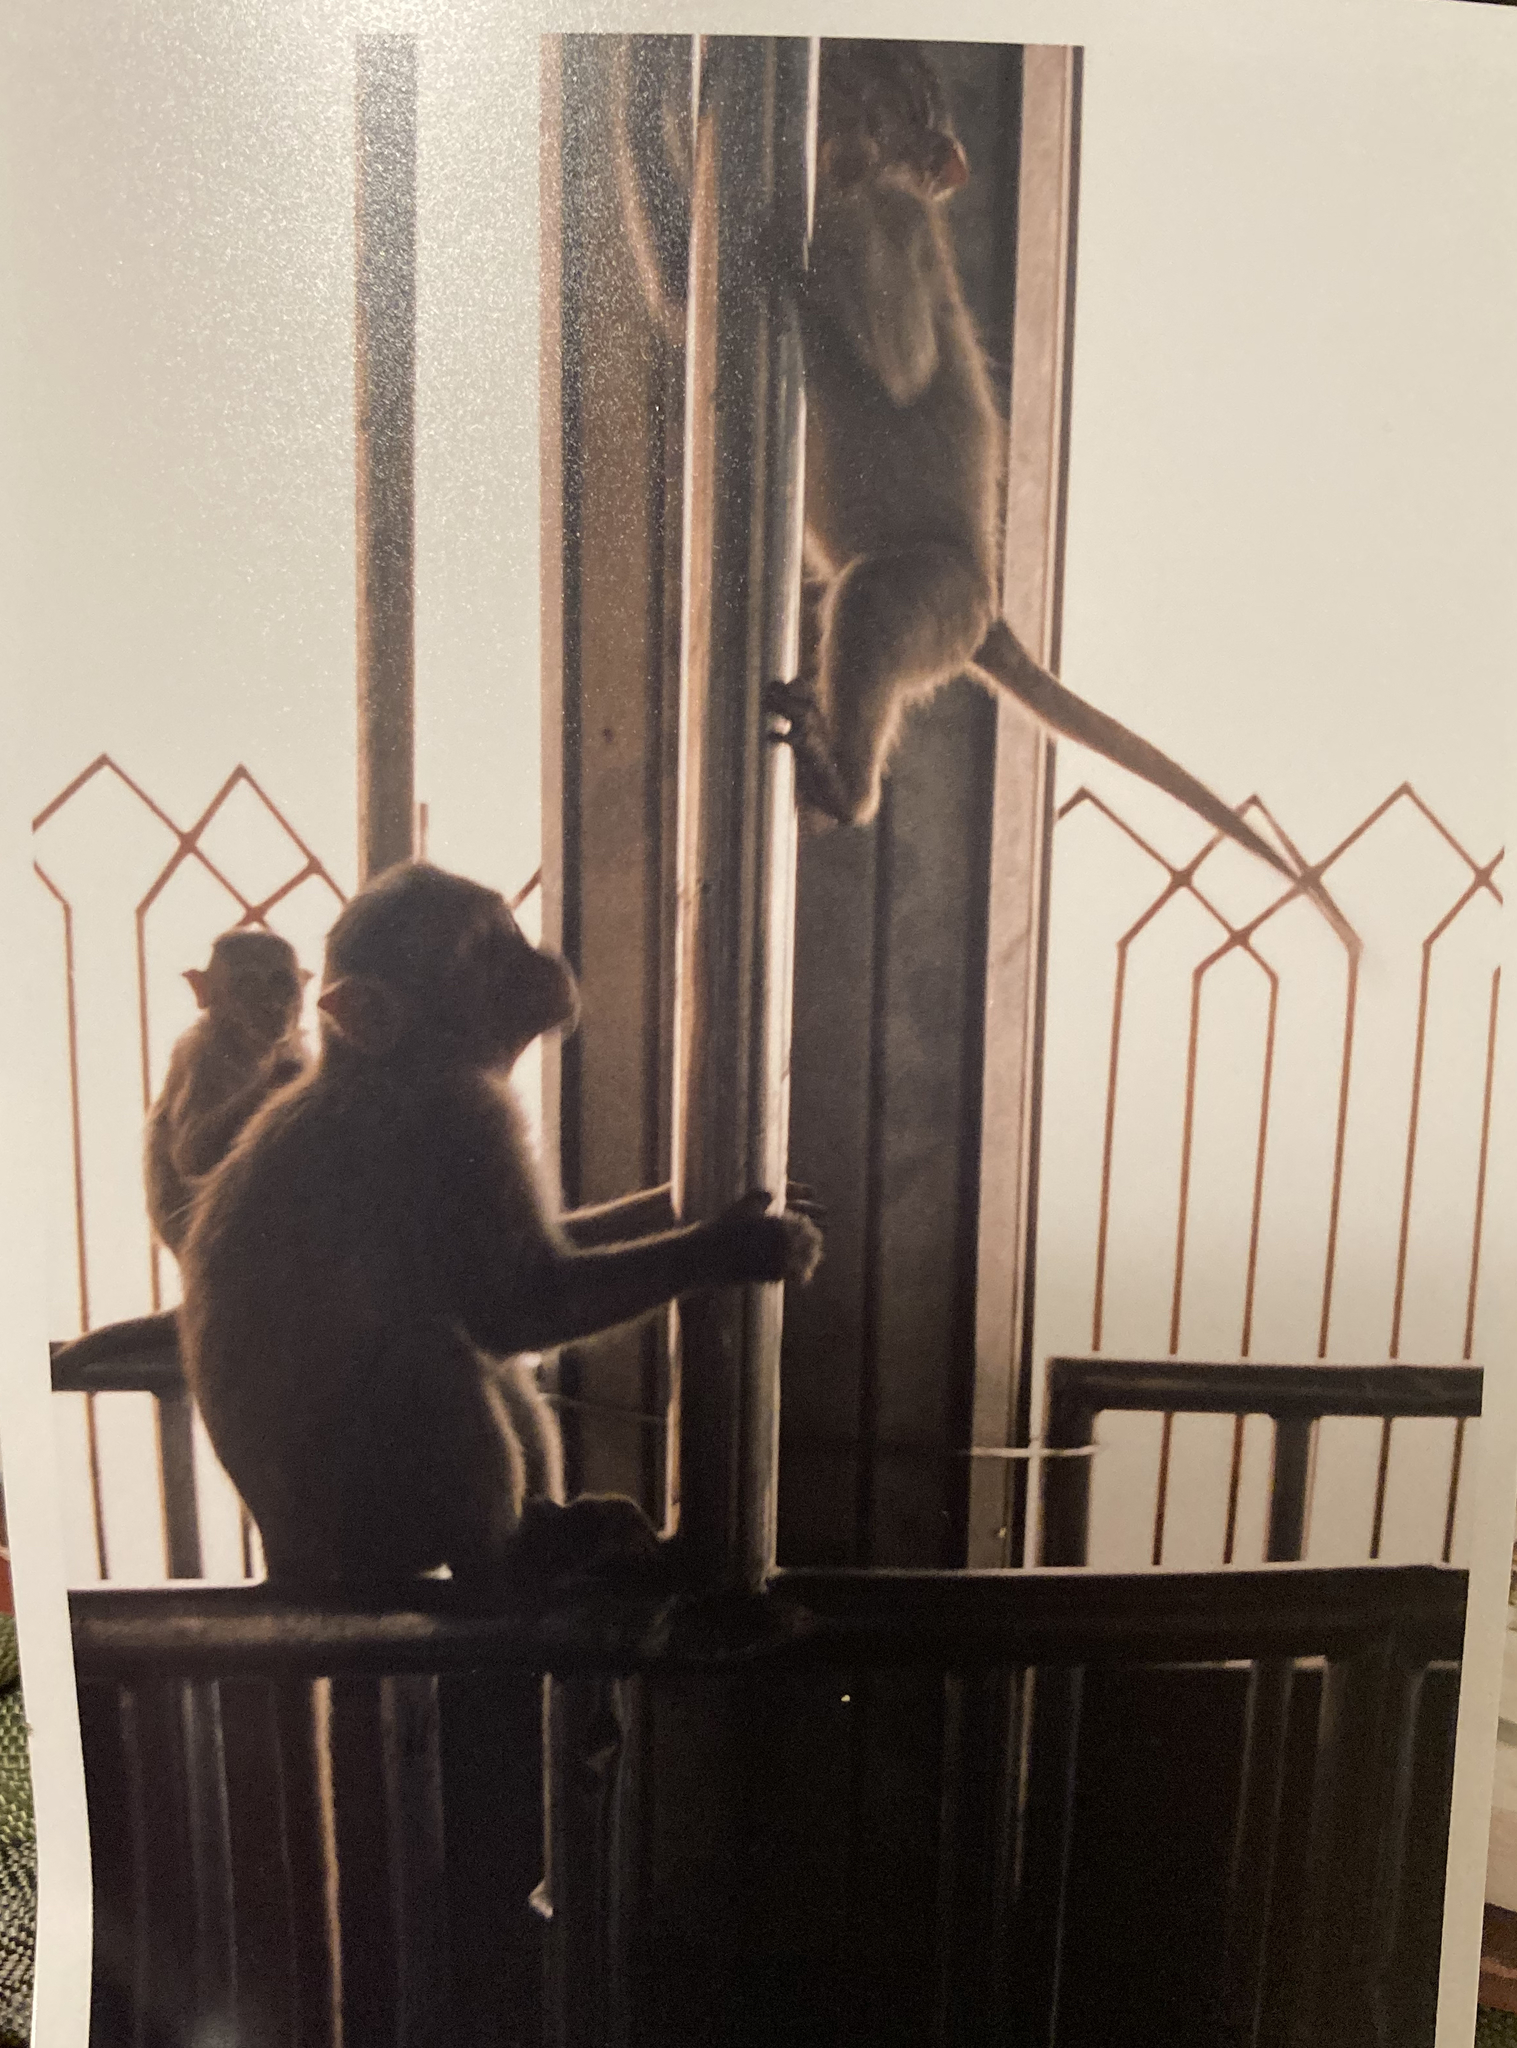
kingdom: Animalia
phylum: Chordata
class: Mammalia
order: Primates
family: Cercopithecidae
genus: Macaca
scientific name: Macaca radiata
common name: Bonnet macaque
